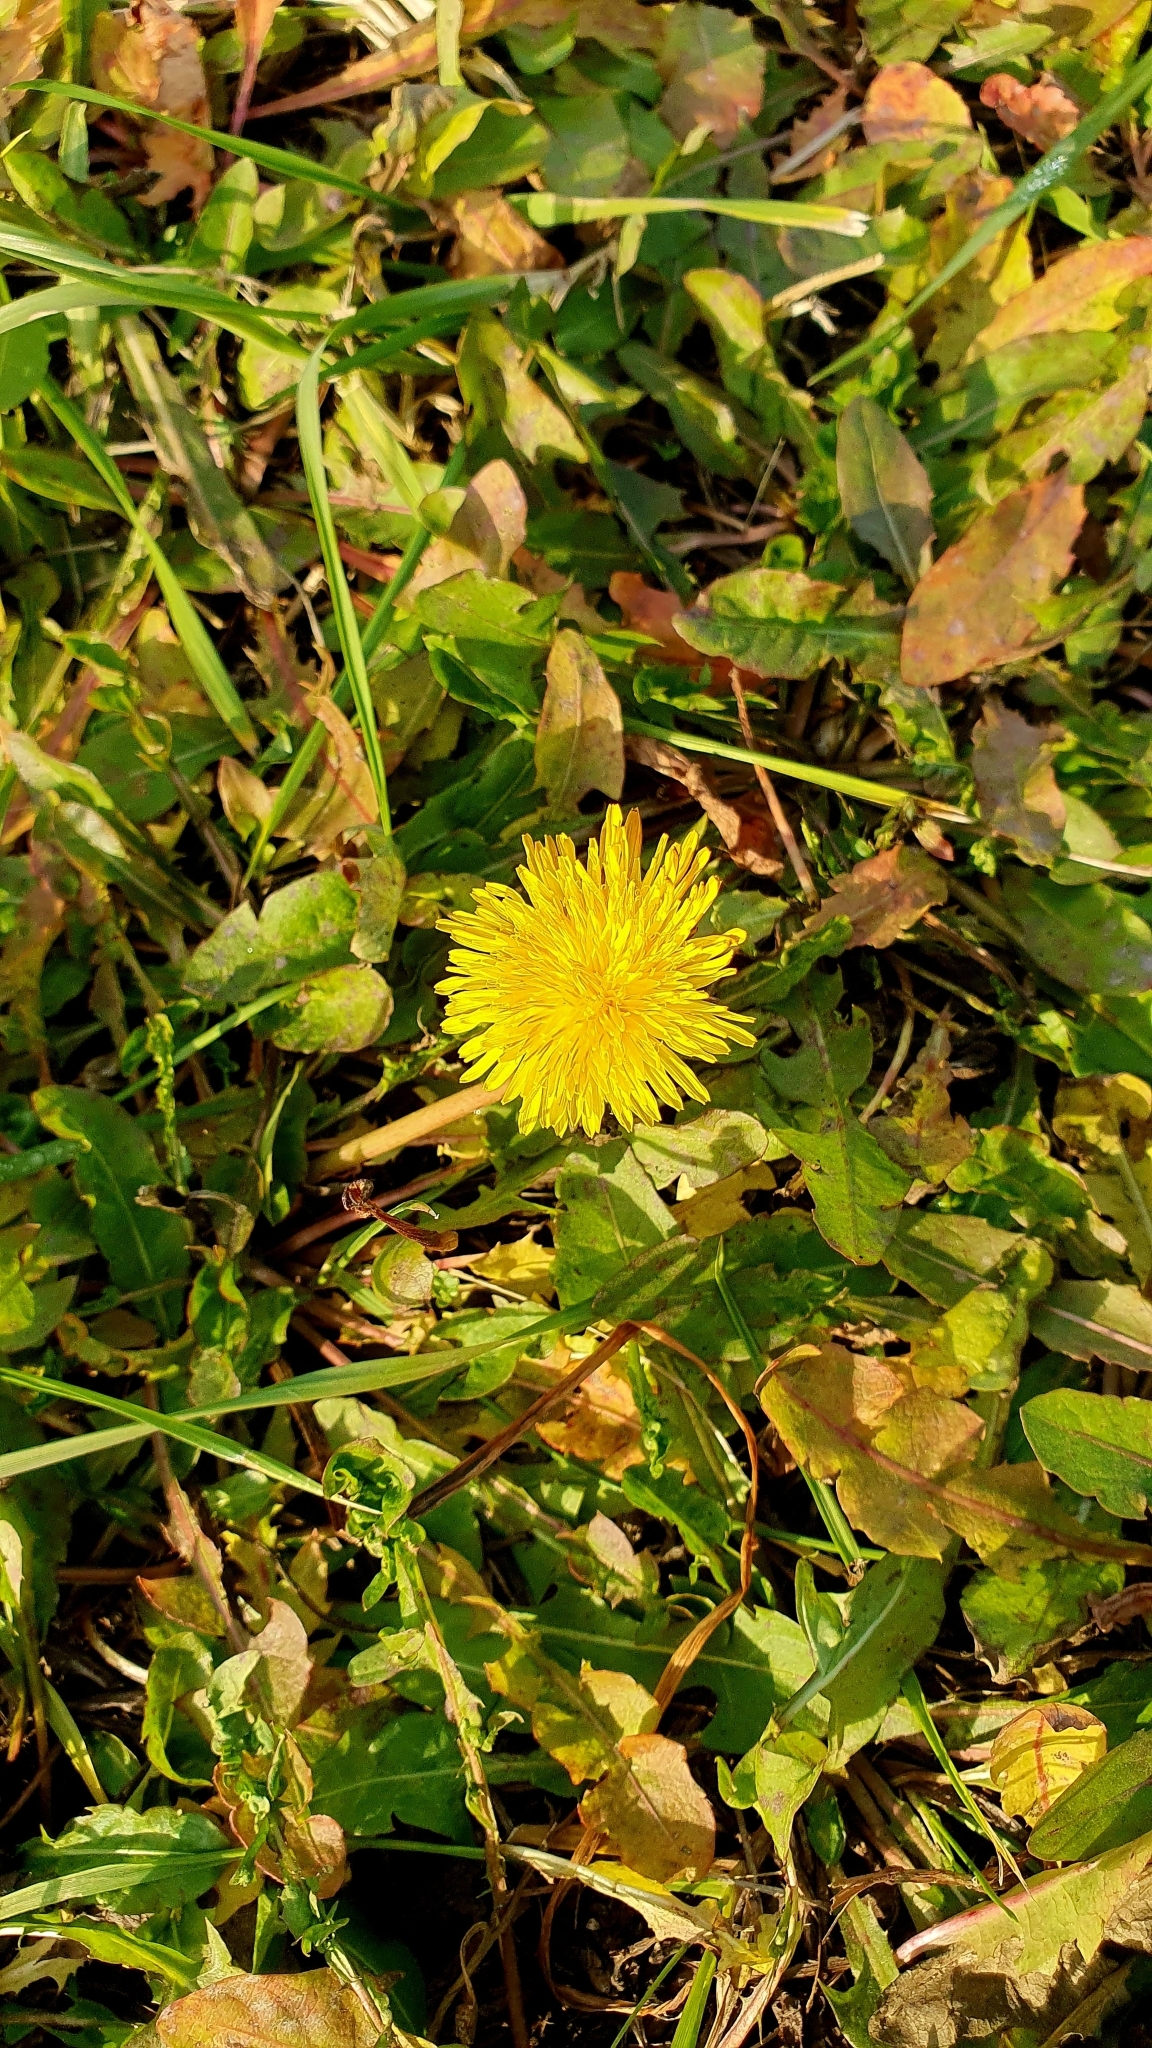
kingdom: Plantae
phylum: Tracheophyta
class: Magnoliopsida
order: Asterales
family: Asteraceae
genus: Taraxacum
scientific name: Taraxacum officinale
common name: Common dandelion
